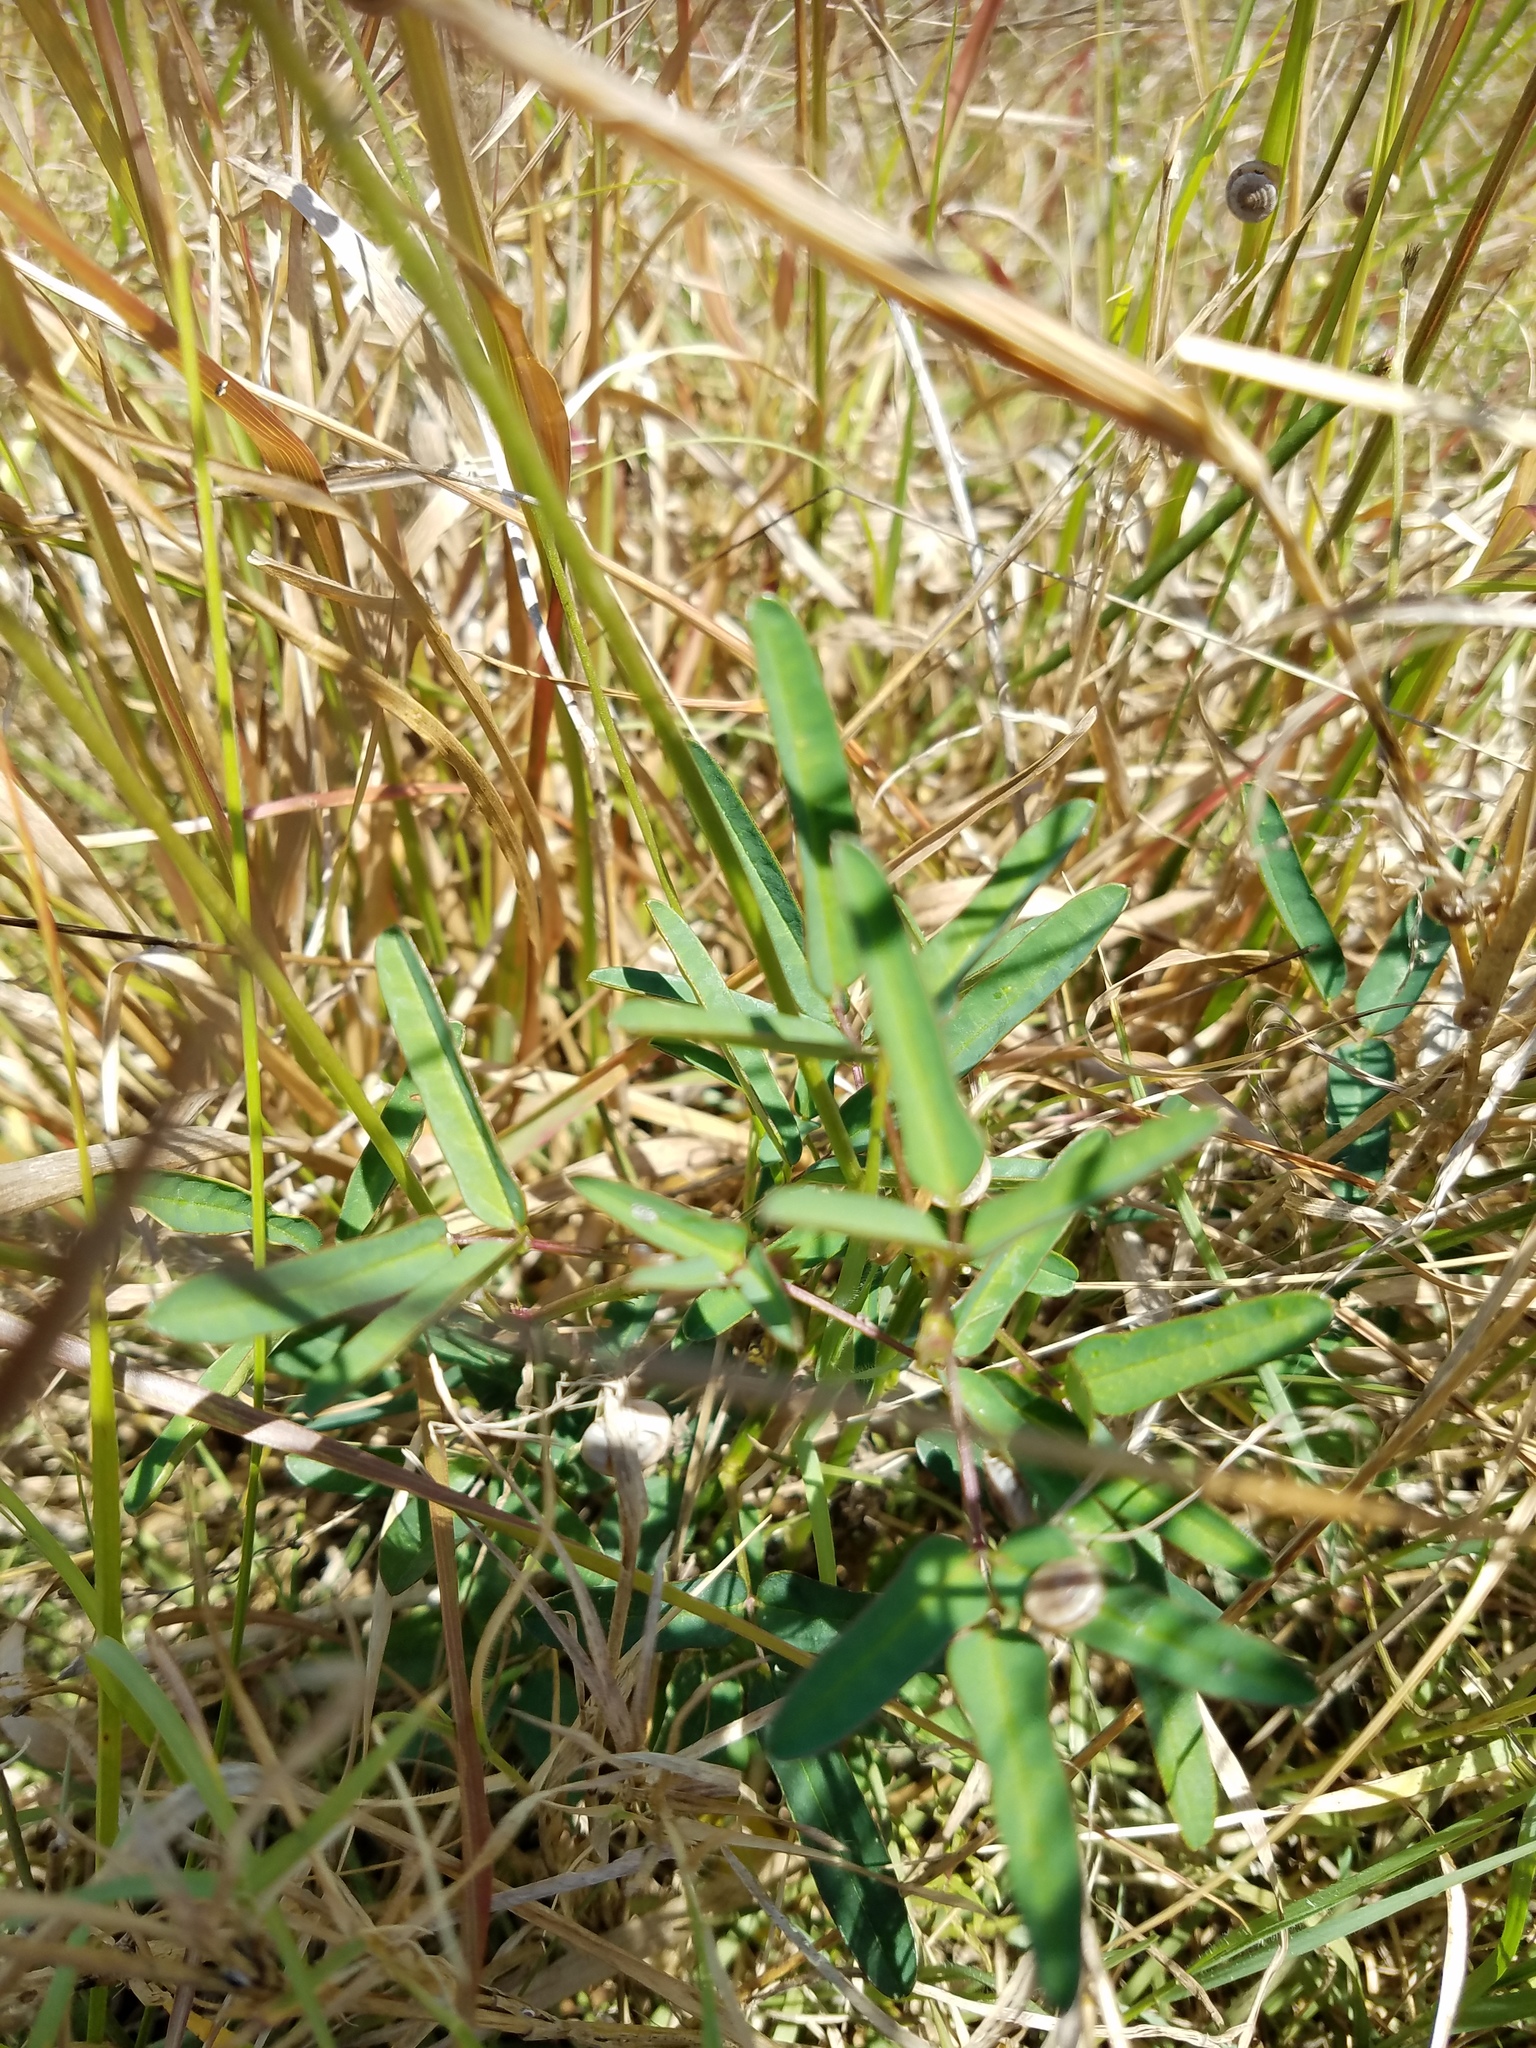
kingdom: Plantae
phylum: Tracheophyta
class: Magnoliopsida
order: Fabales
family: Fabaceae
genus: Macroptilium
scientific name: Macroptilium lathyroides
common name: Wild bushbean
